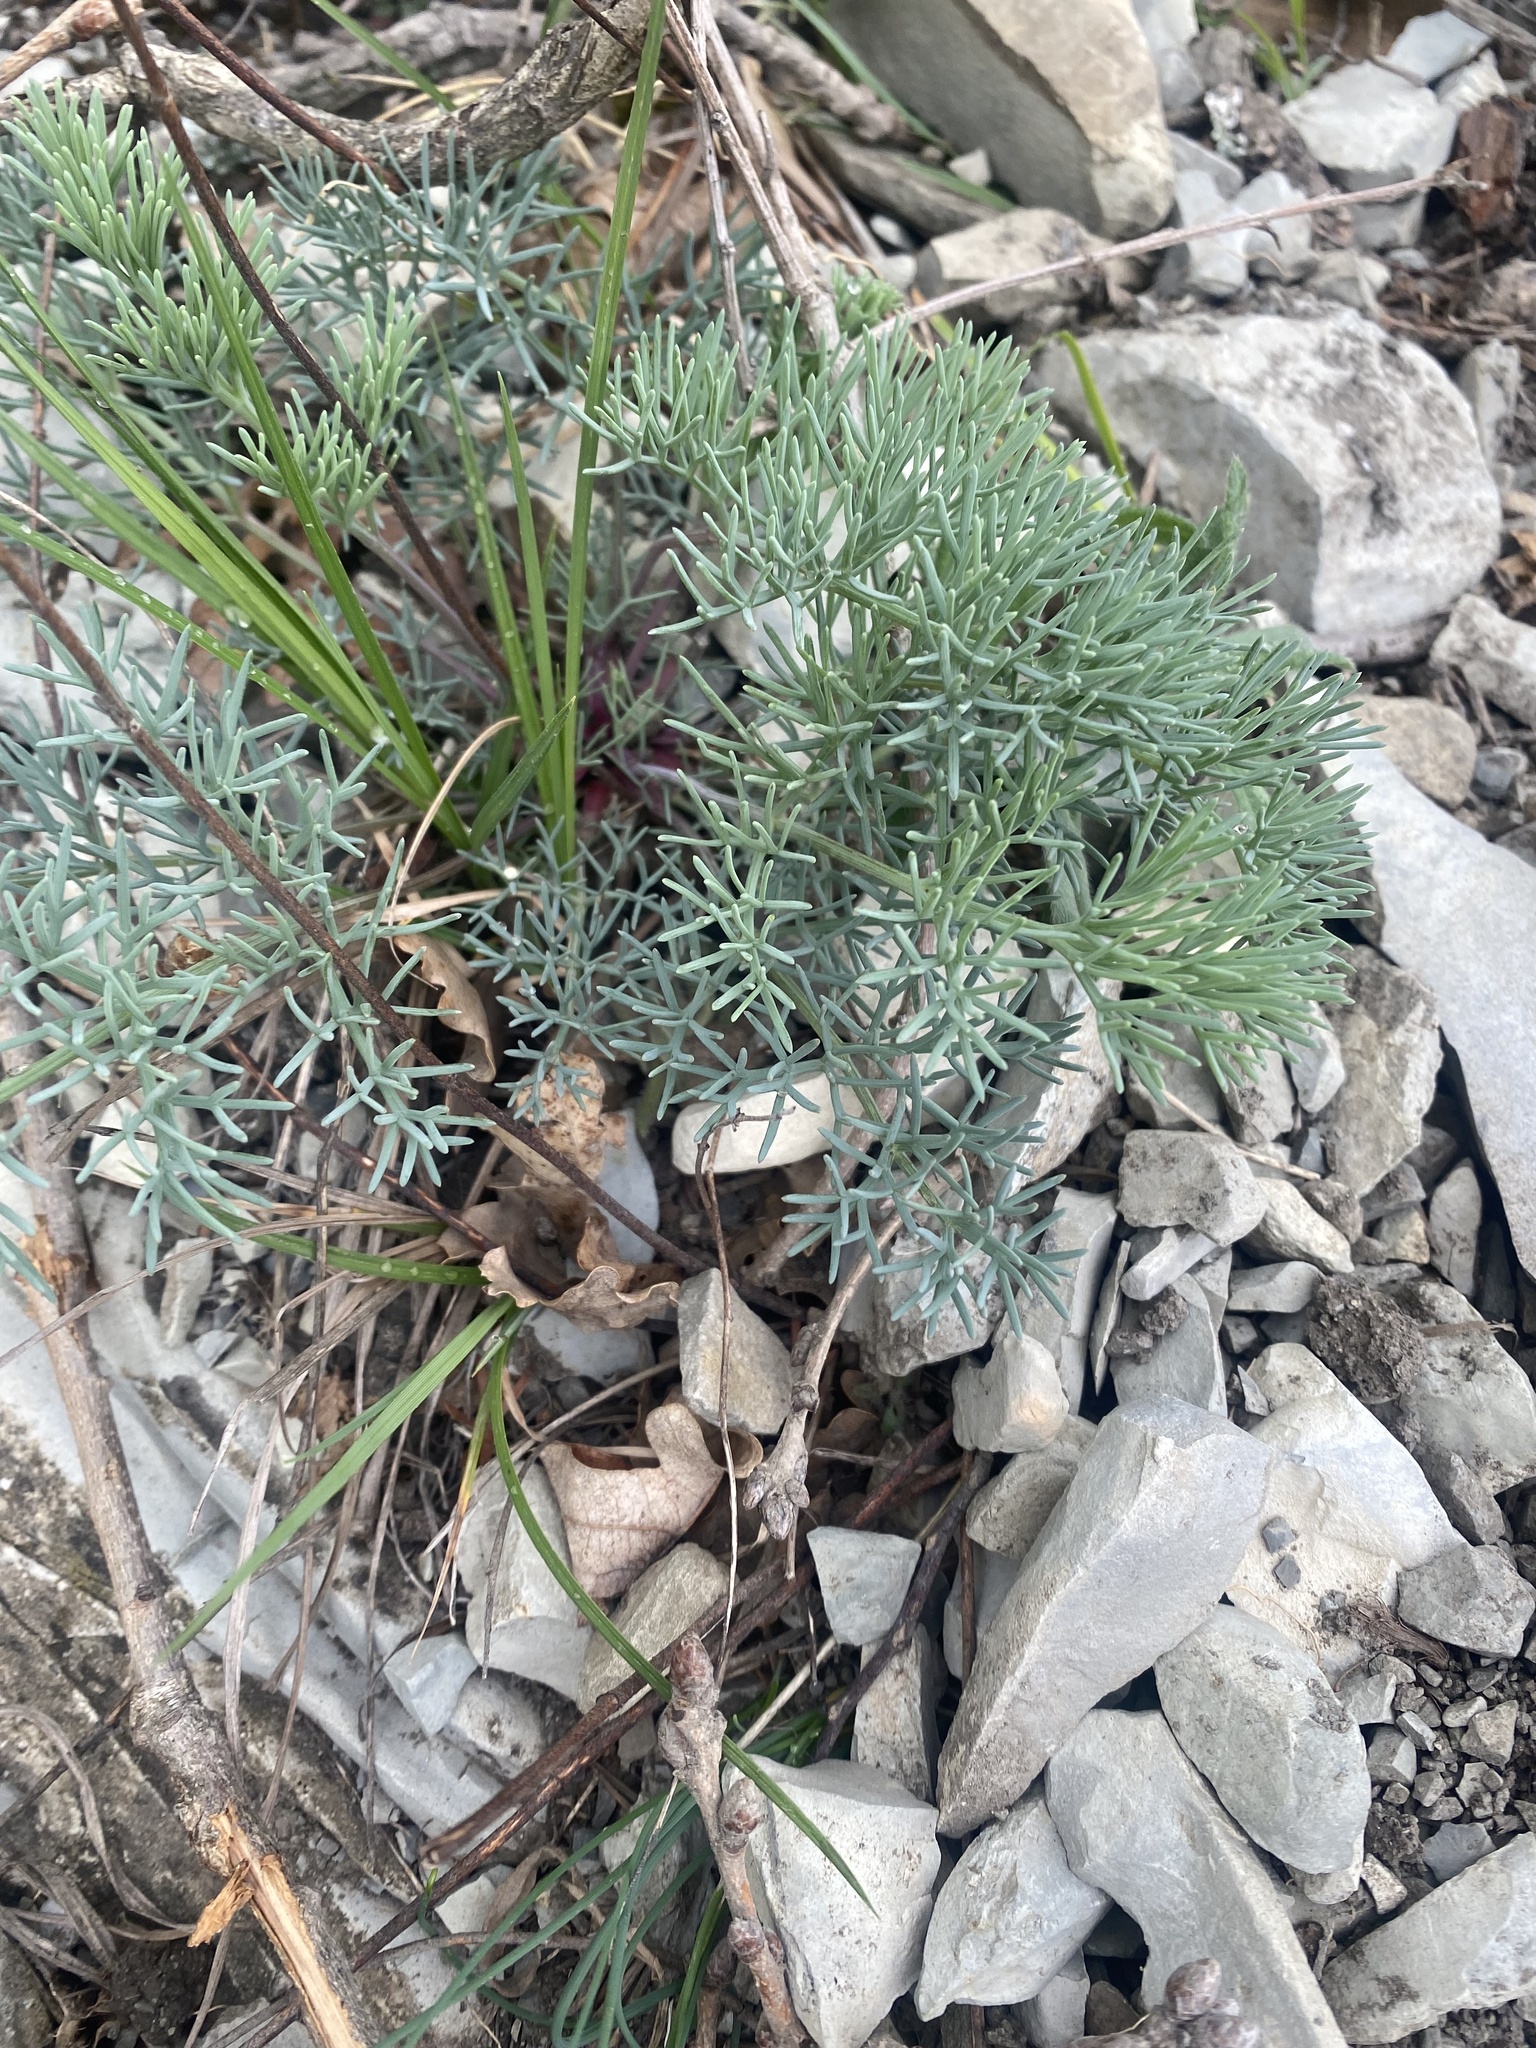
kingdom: Plantae
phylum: Tracheophyta
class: Magnoliopsida
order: Apiales
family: Apiaceae
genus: Seseli
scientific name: Seseli ponticum
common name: Pontic seseli
